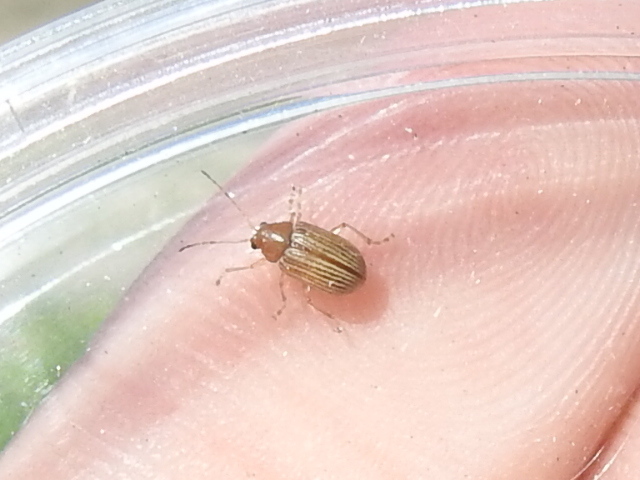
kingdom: Animalia
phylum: Arthropoda
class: Insecta
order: Coleoptera
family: Chrysomelidae
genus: Colaspis
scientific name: Colaspis brunnea
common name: Grape colaspis
